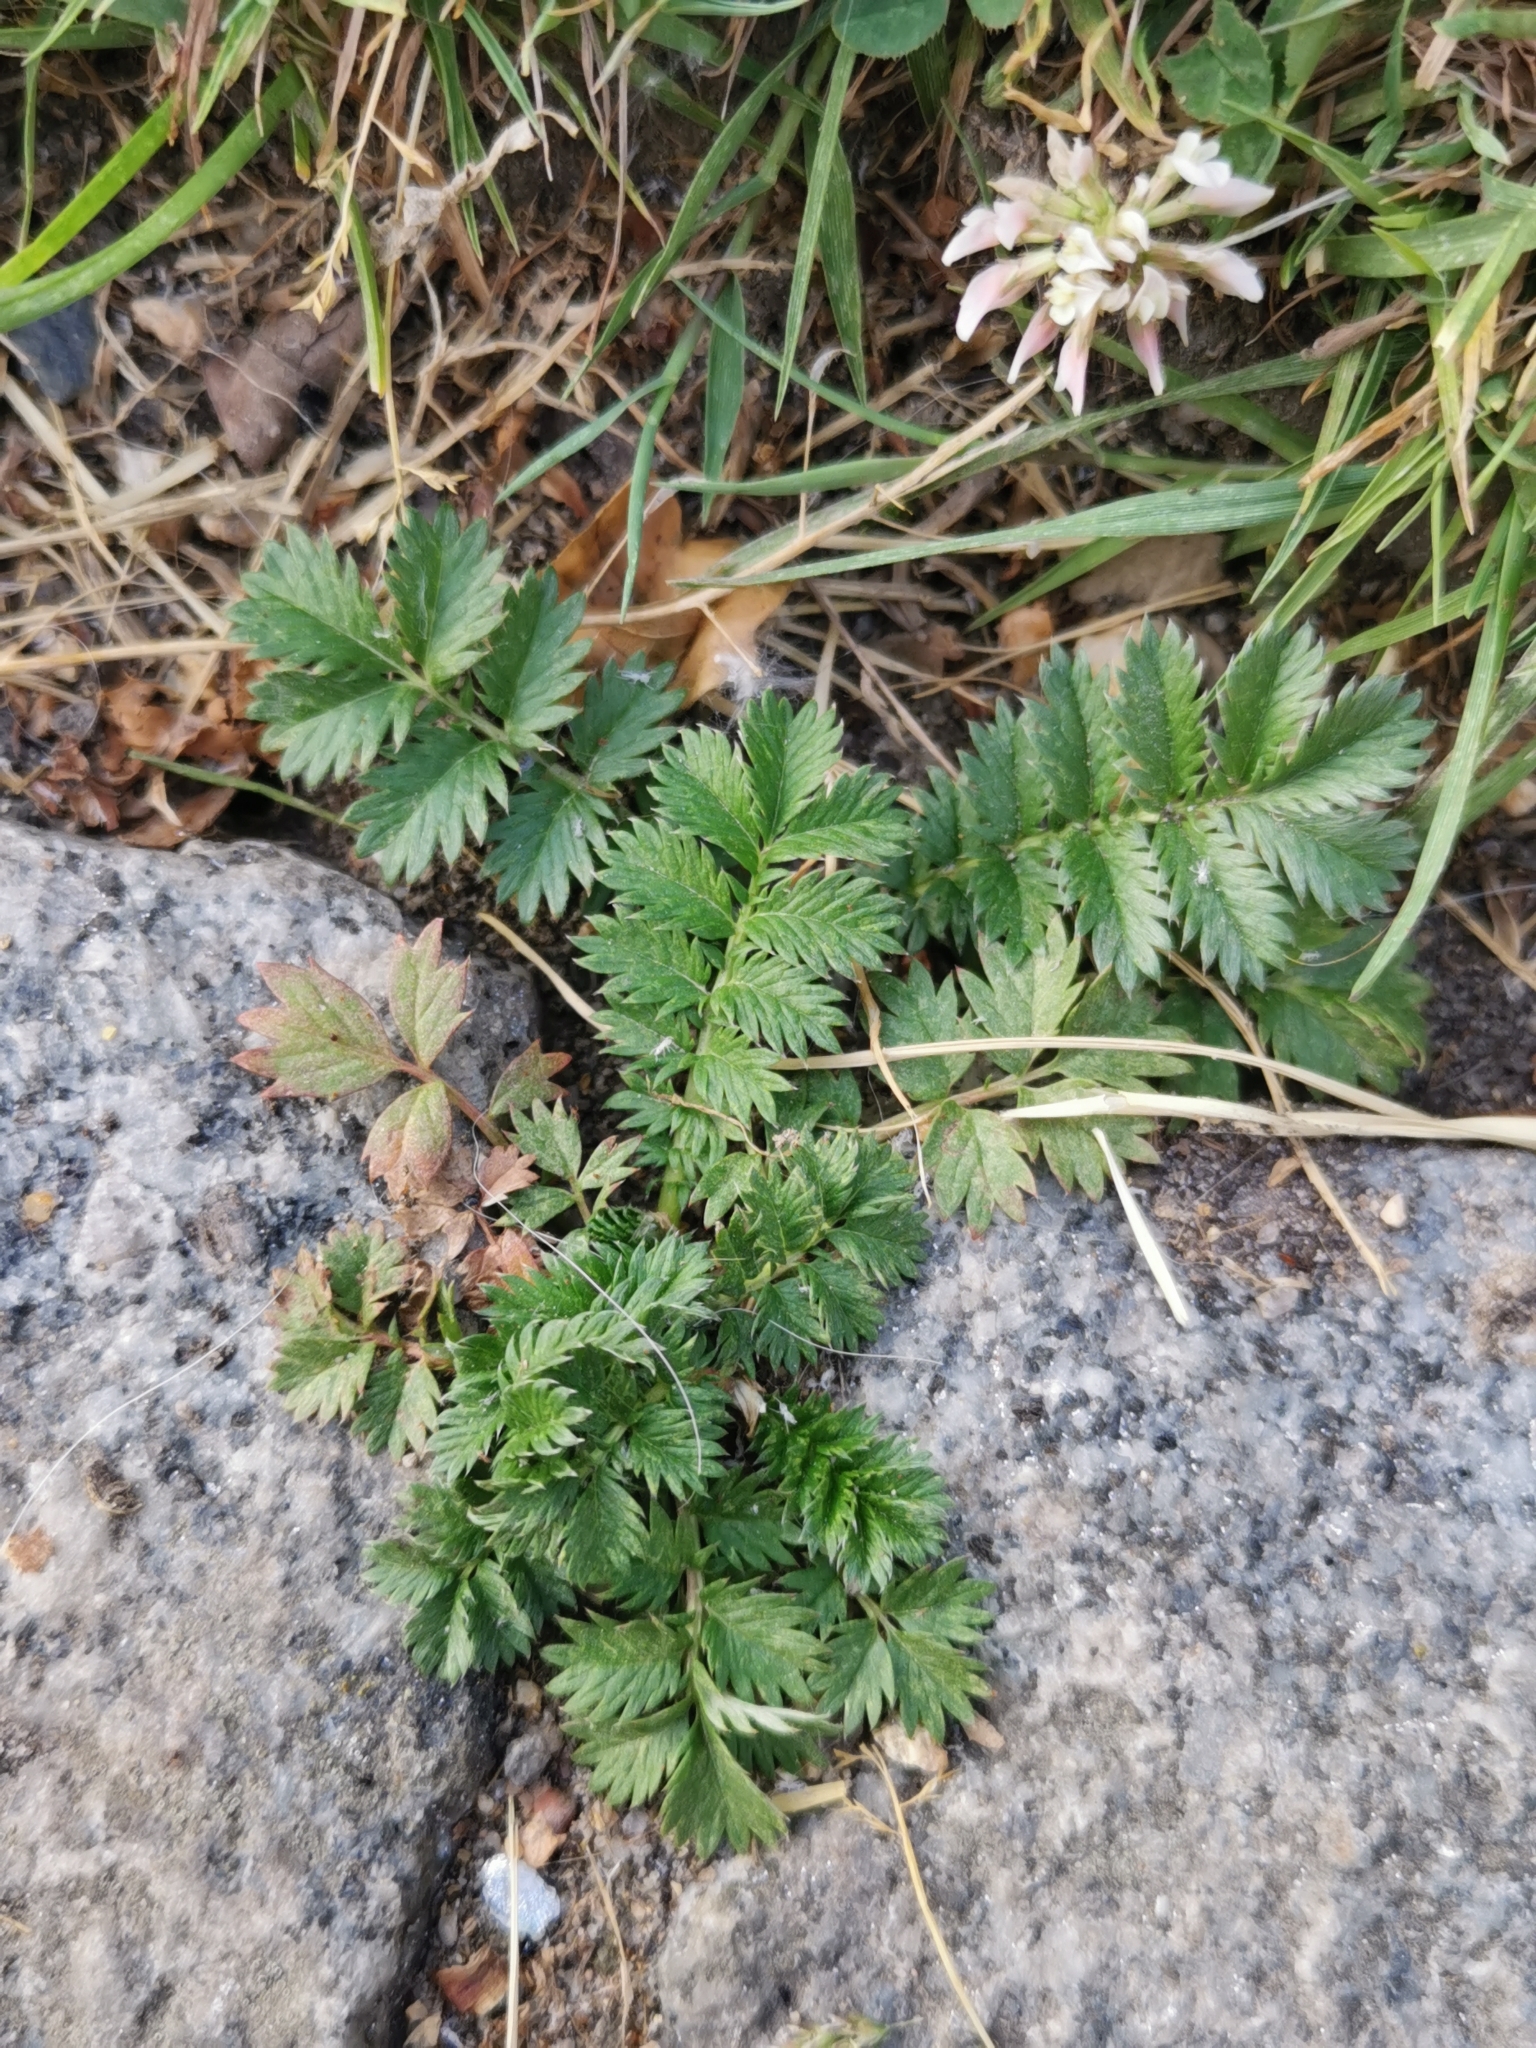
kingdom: Plantae
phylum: Tracheophyta
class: Magnoliopsida
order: Rosales
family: Rosaceae
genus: Argentina
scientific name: Argentina anserina
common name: Common silverweed
